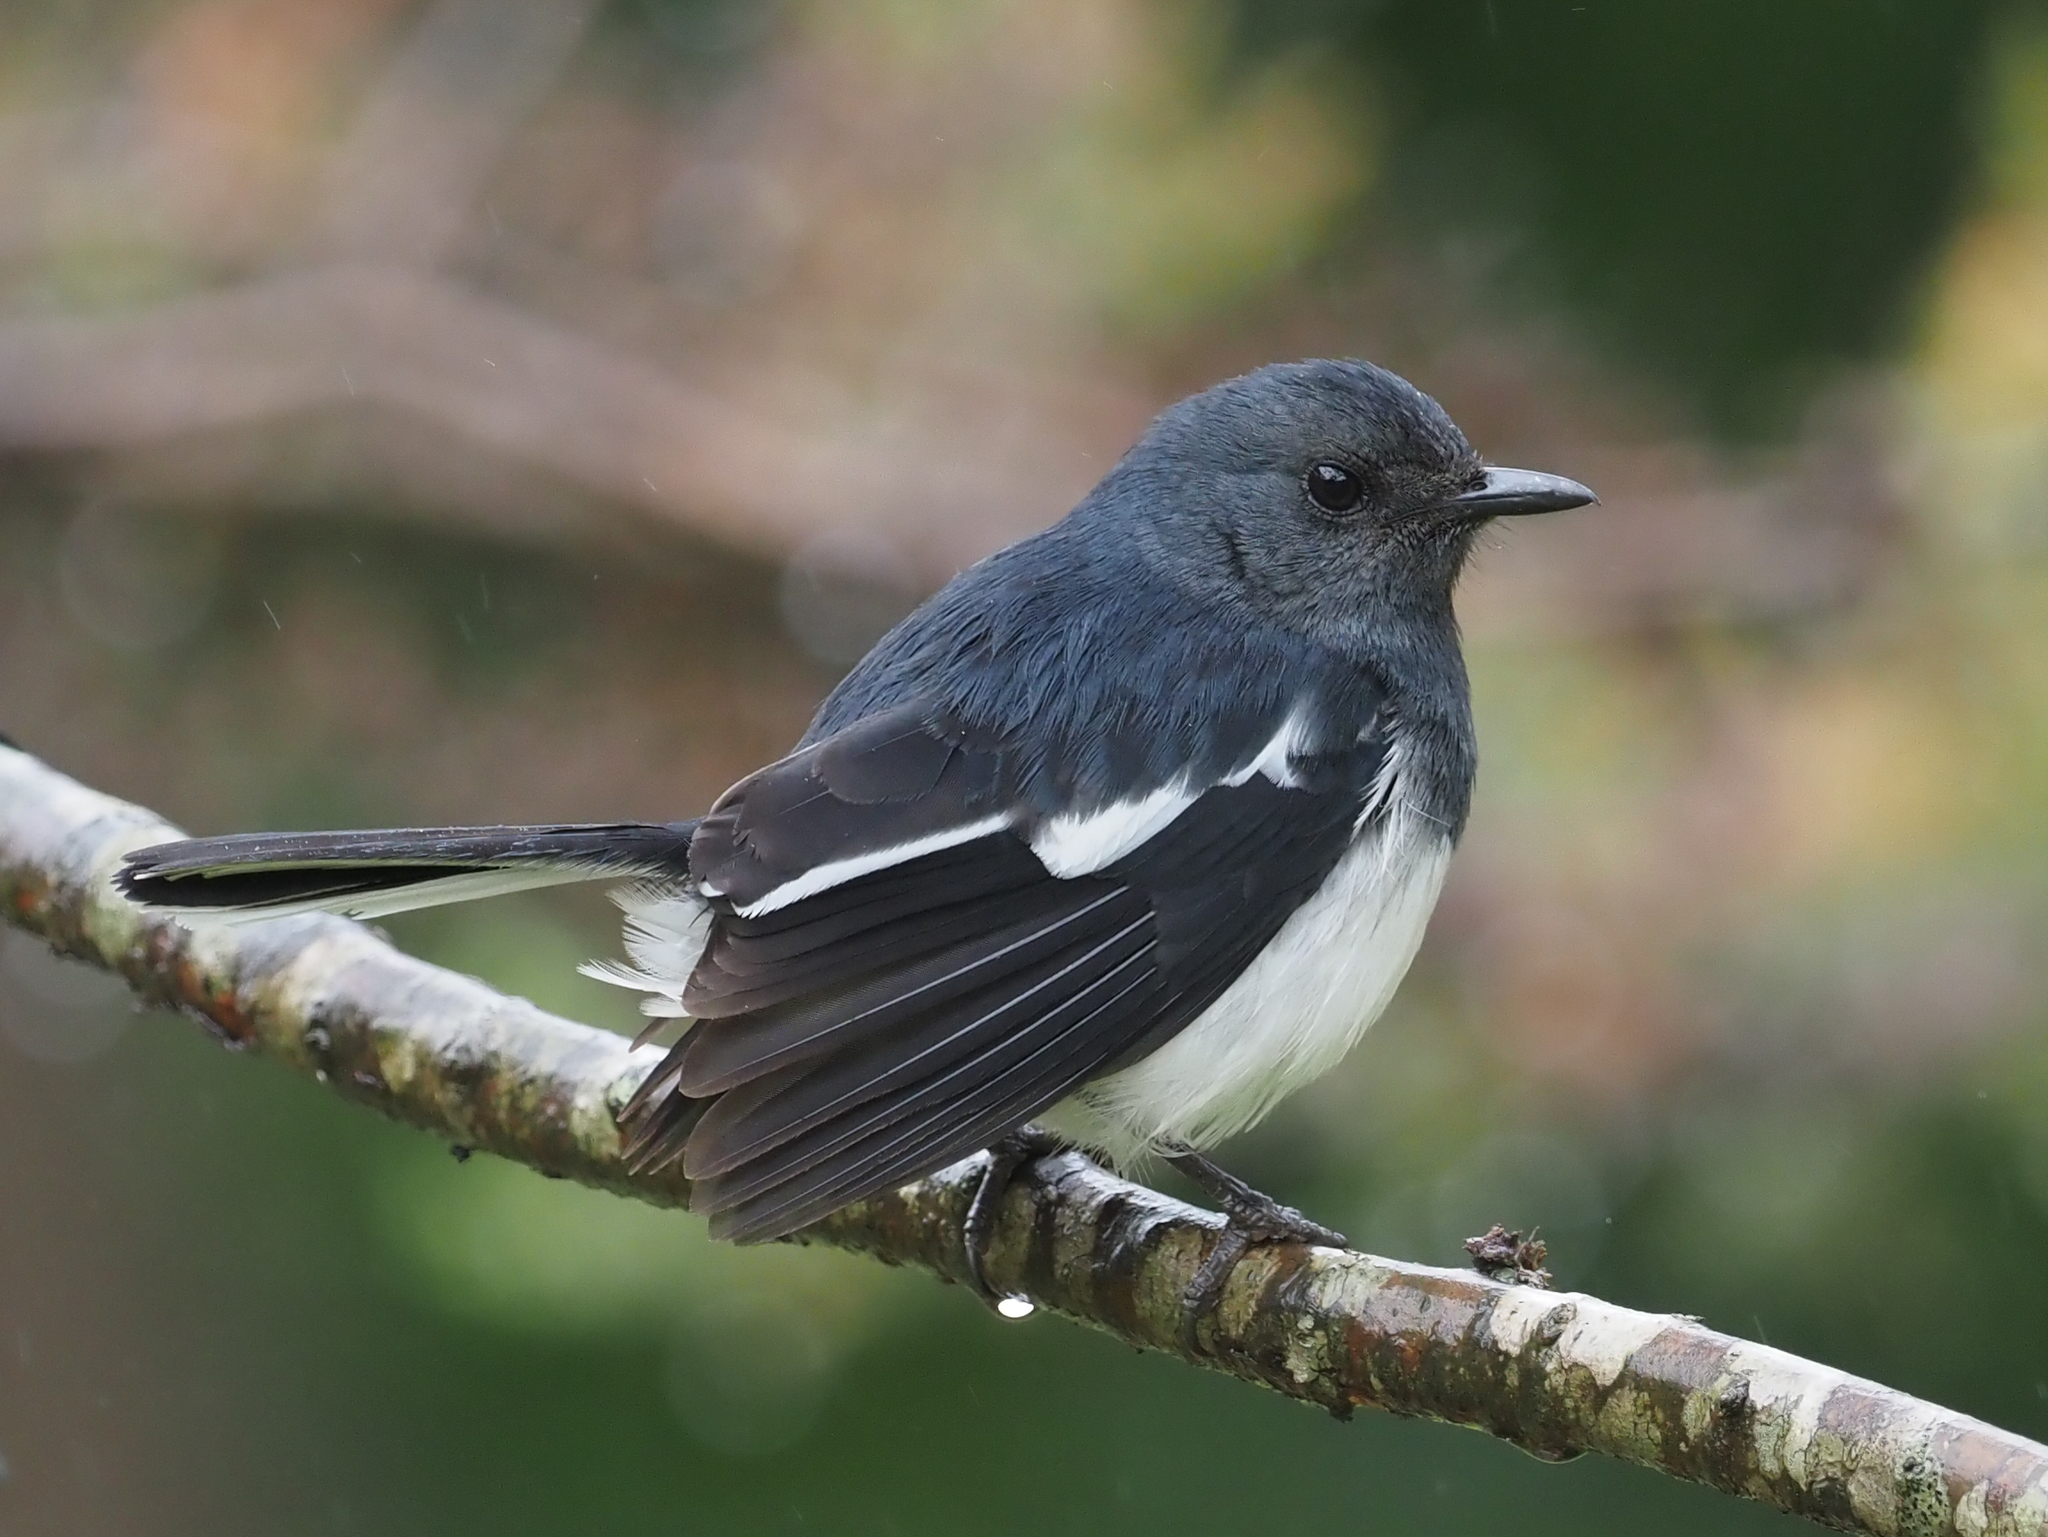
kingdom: Animalia
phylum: Chordata
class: Aves
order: Passeriformes
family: Muscicapidae
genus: Copsychus
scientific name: Copsychus saularis
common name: Oriental magpie-robin
